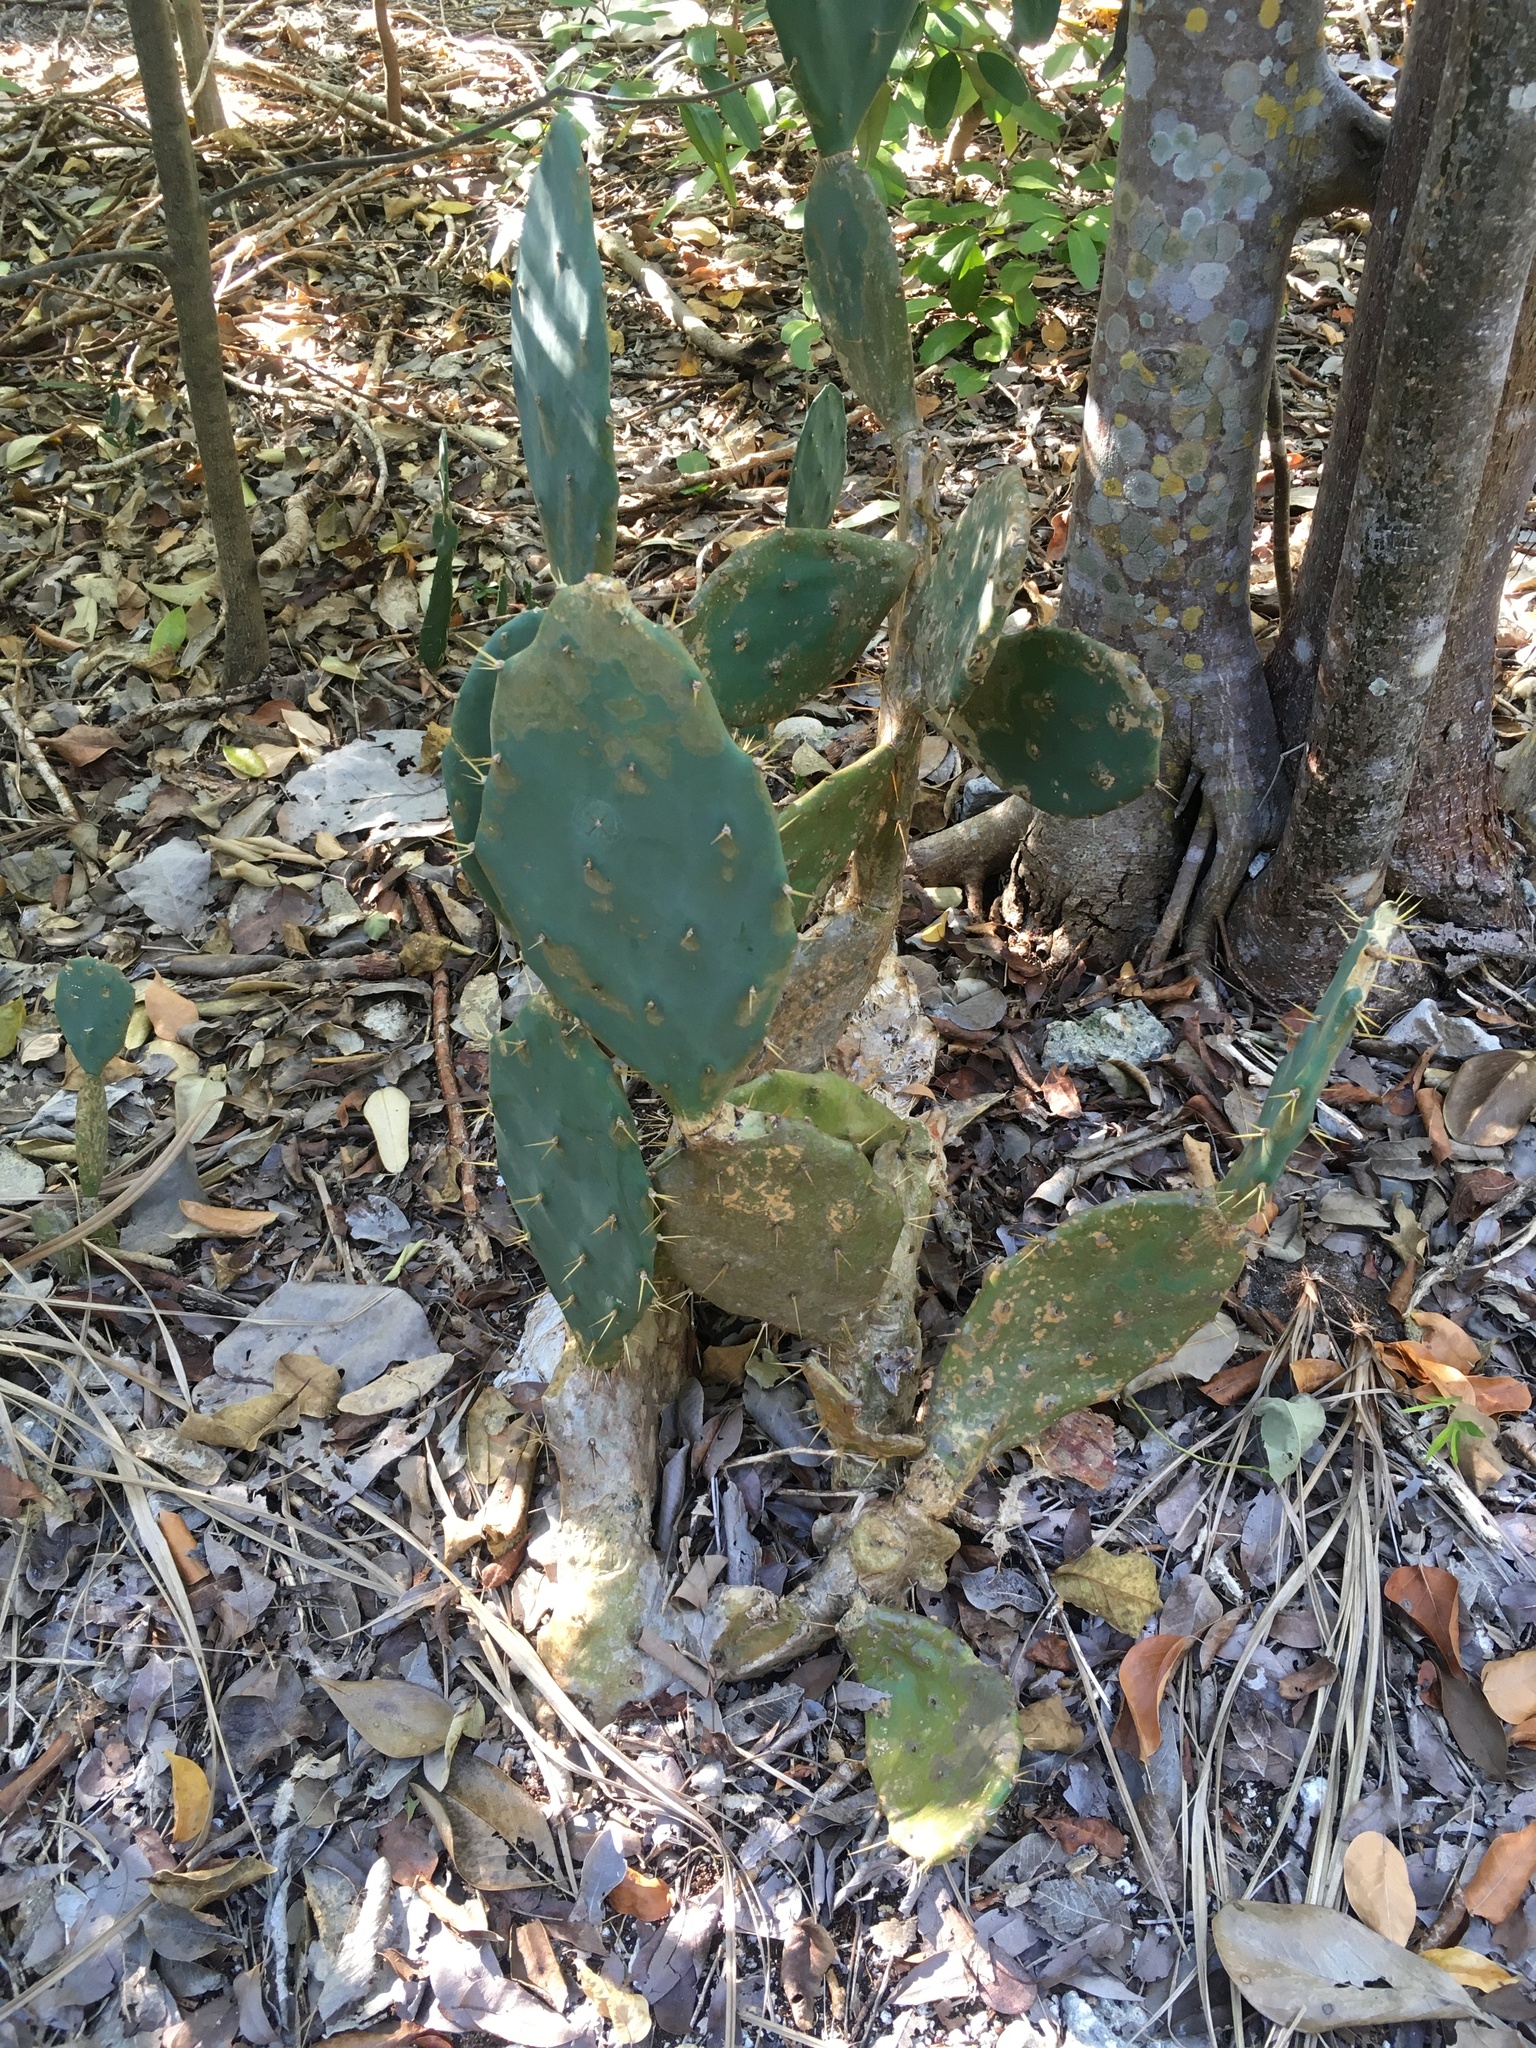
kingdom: Plantae
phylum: Tracheophyta
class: Magnoliopsida
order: Caryophyllales
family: Cactaceae
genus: Opuntia
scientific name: Opuntia stricta
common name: Erect pricklypear
